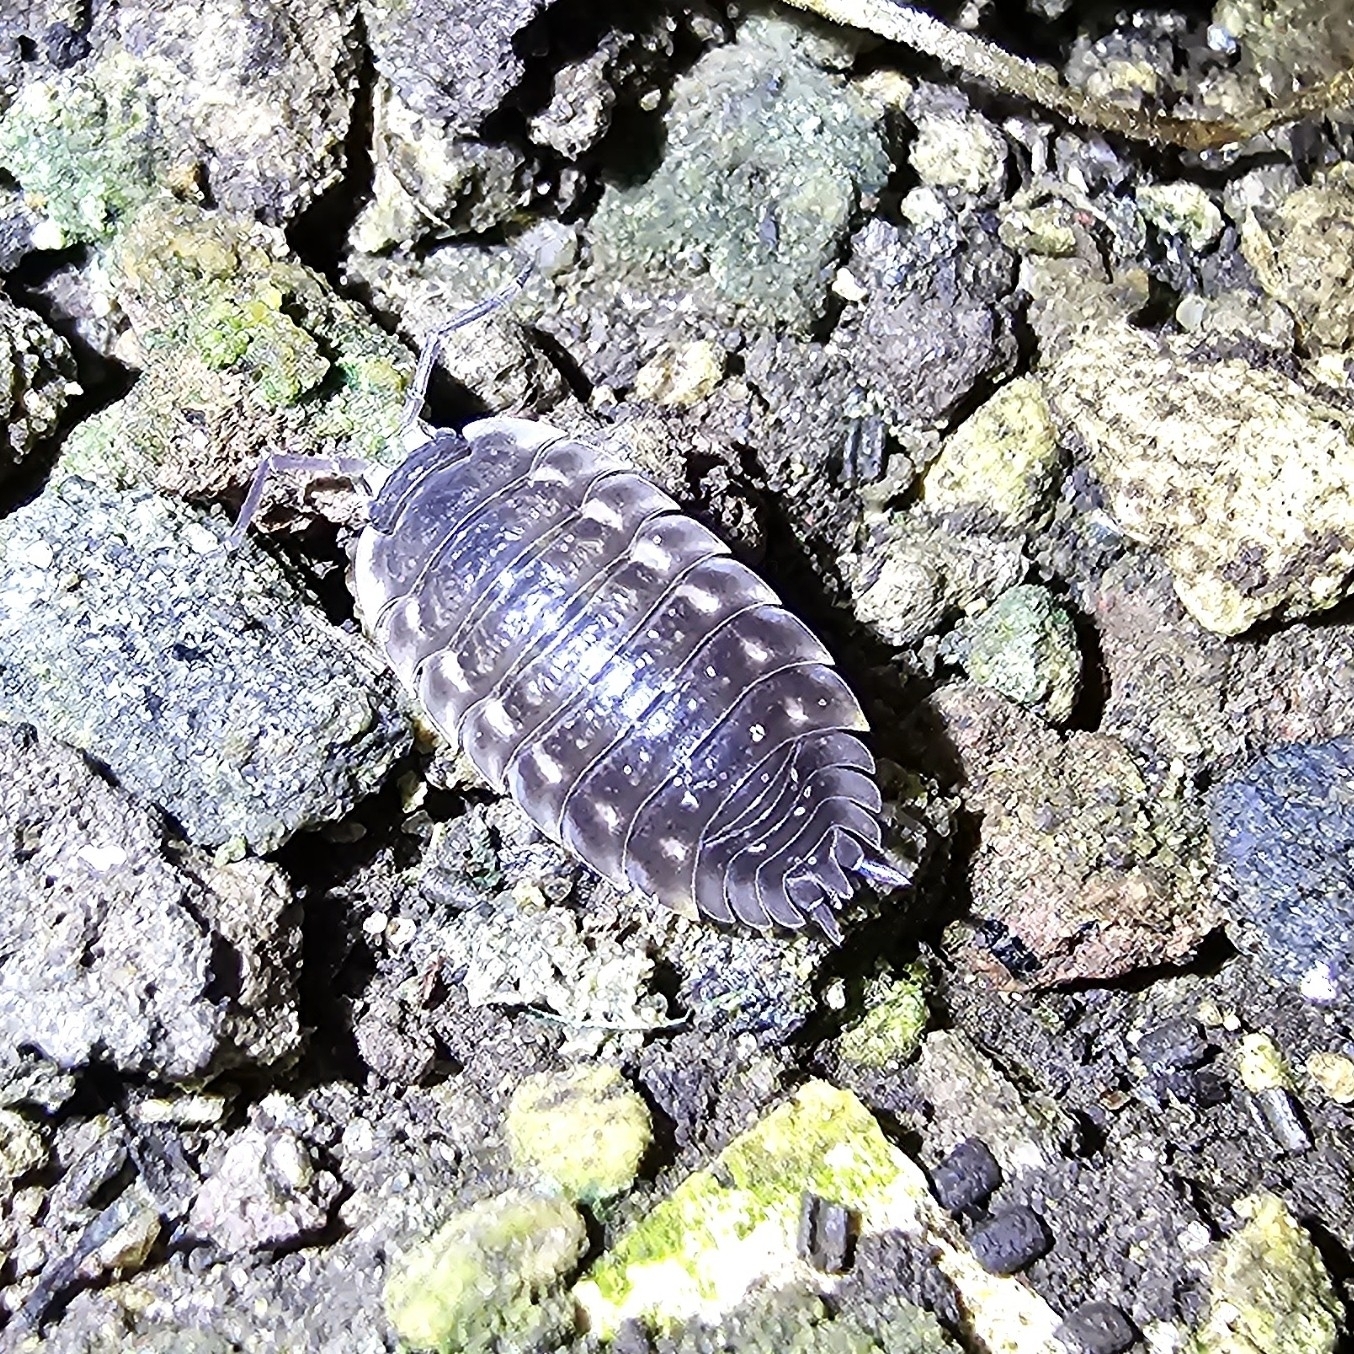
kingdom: Animalia
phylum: Arthropoda
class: Malacostraca
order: Isopoda
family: Oniscidae
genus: Oniscus
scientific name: Oniscus asellus
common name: Common shiny woodlouse
